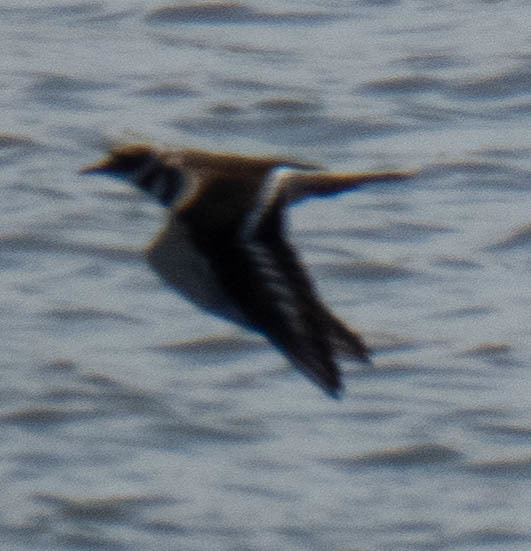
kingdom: Animalia
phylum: Chordata
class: Aves
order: Charadriiformes
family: Charadriidae
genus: Charadrius
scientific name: Charadrius vociferus
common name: Killdeer
